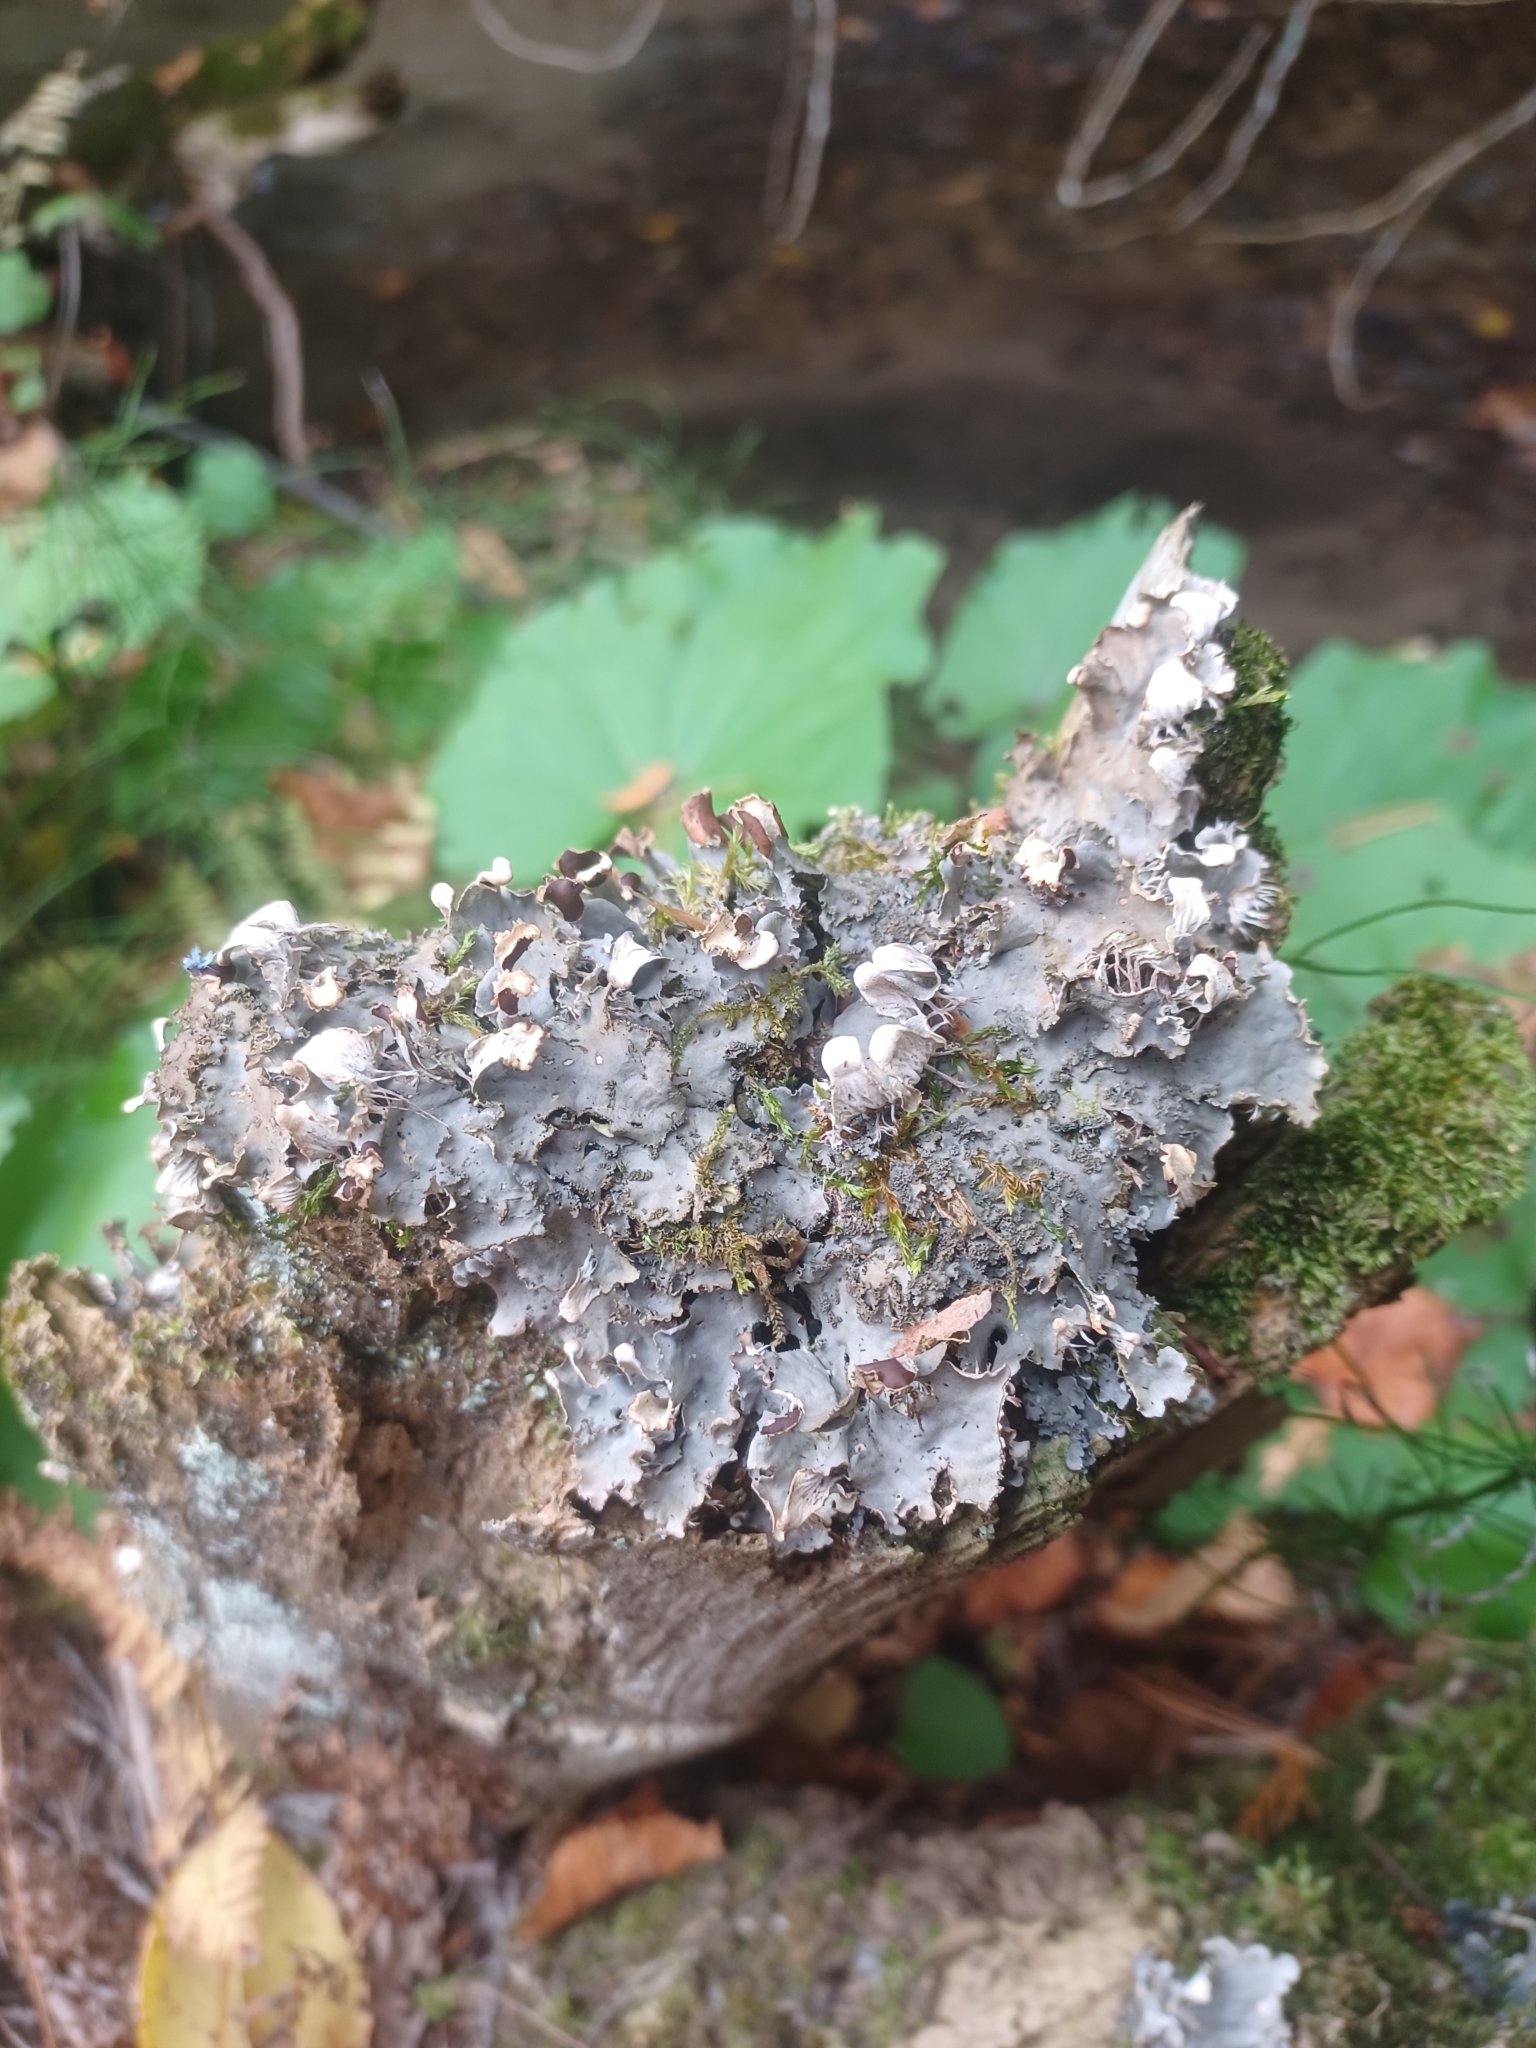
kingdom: Fungi
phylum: Ascomycota
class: Lecanoromycetes
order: Peltigerales
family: Peltigeraceae
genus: Peltigera
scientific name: Peltigera praetextata
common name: Scaly dog-lichen
